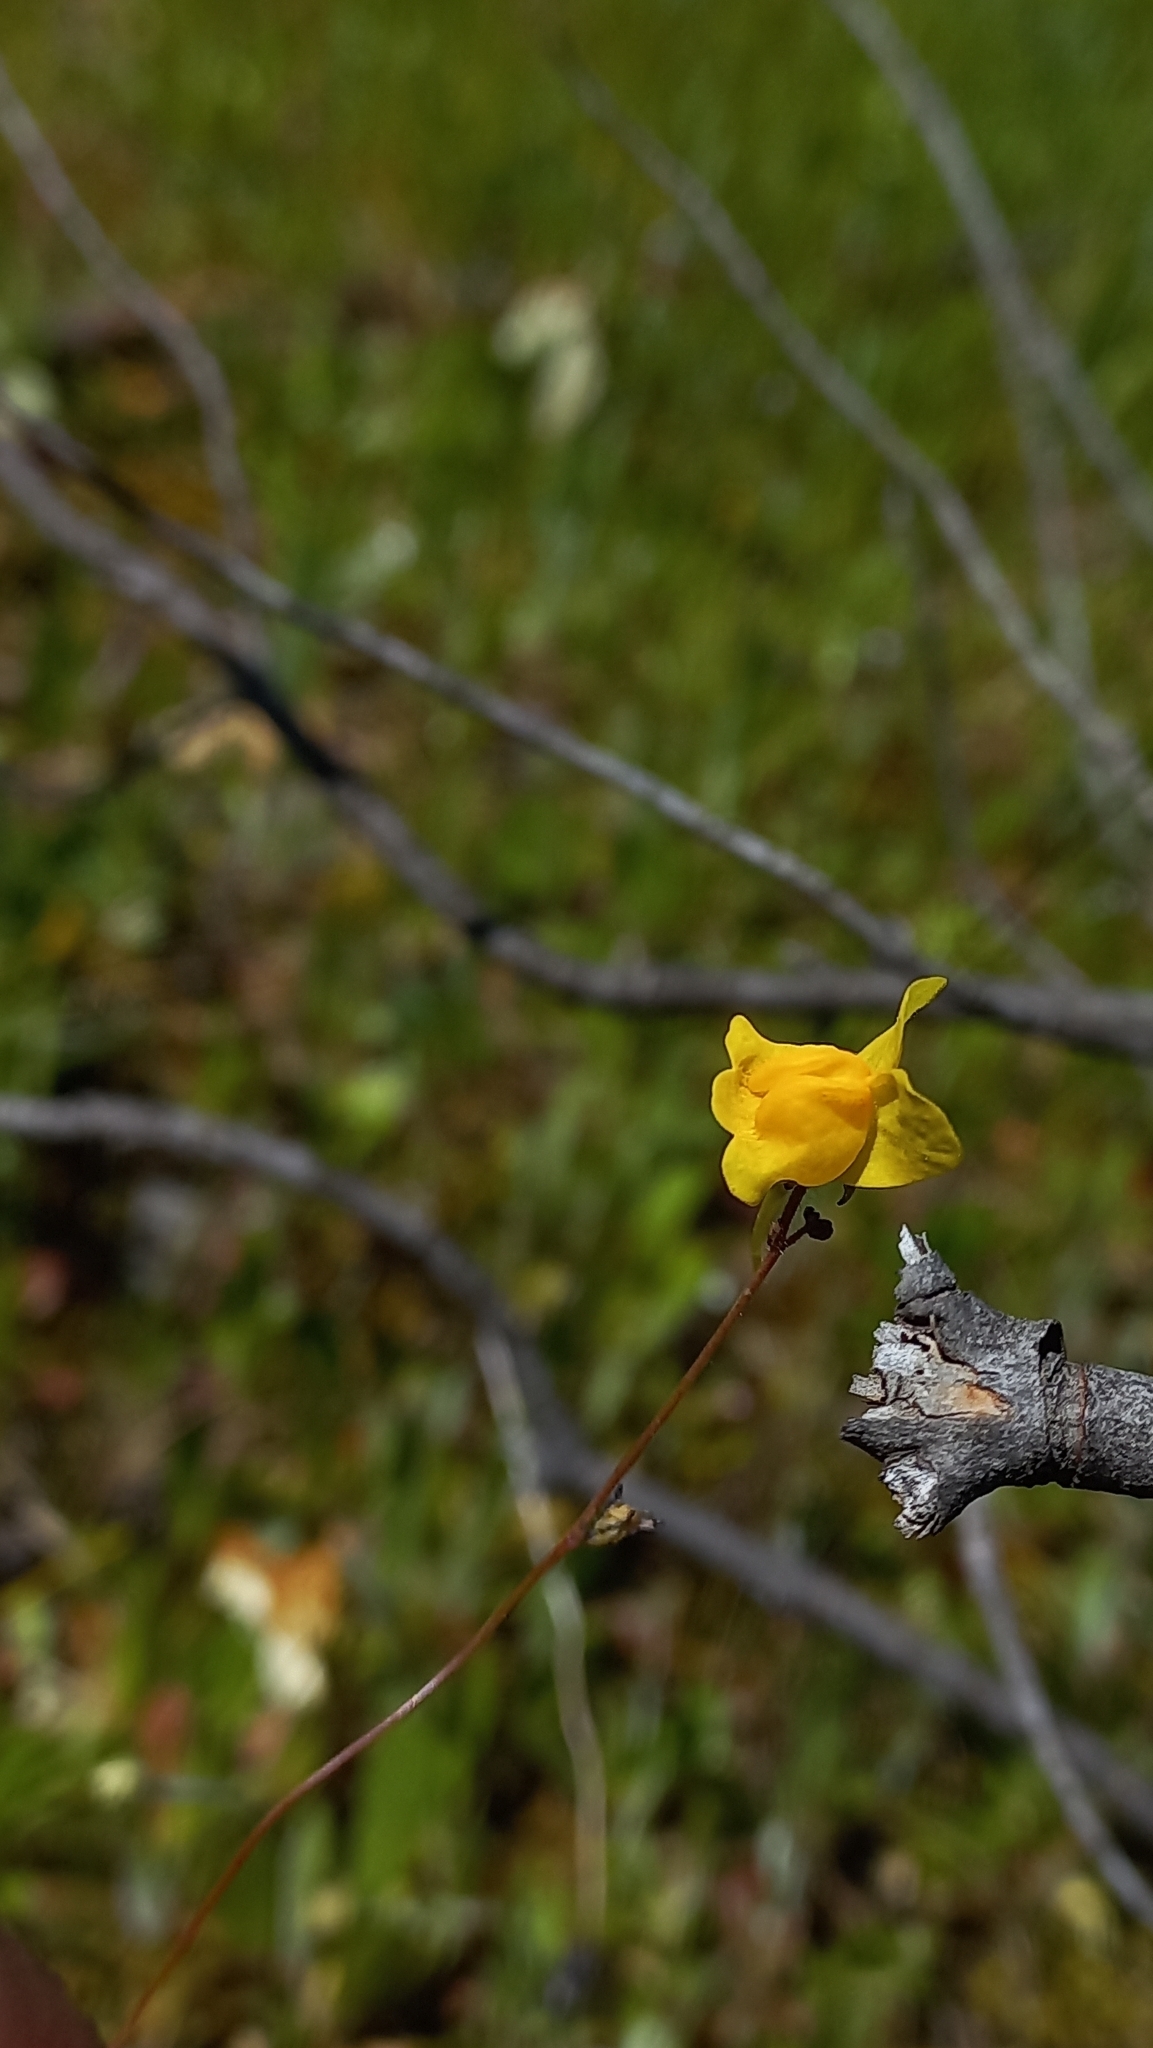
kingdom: Plantae
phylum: Tracheophyta
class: Magnoliopsida
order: Lamiales
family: Plantaginaceae
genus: Linaria
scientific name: Linaria spartea
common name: Ballast toadflax
